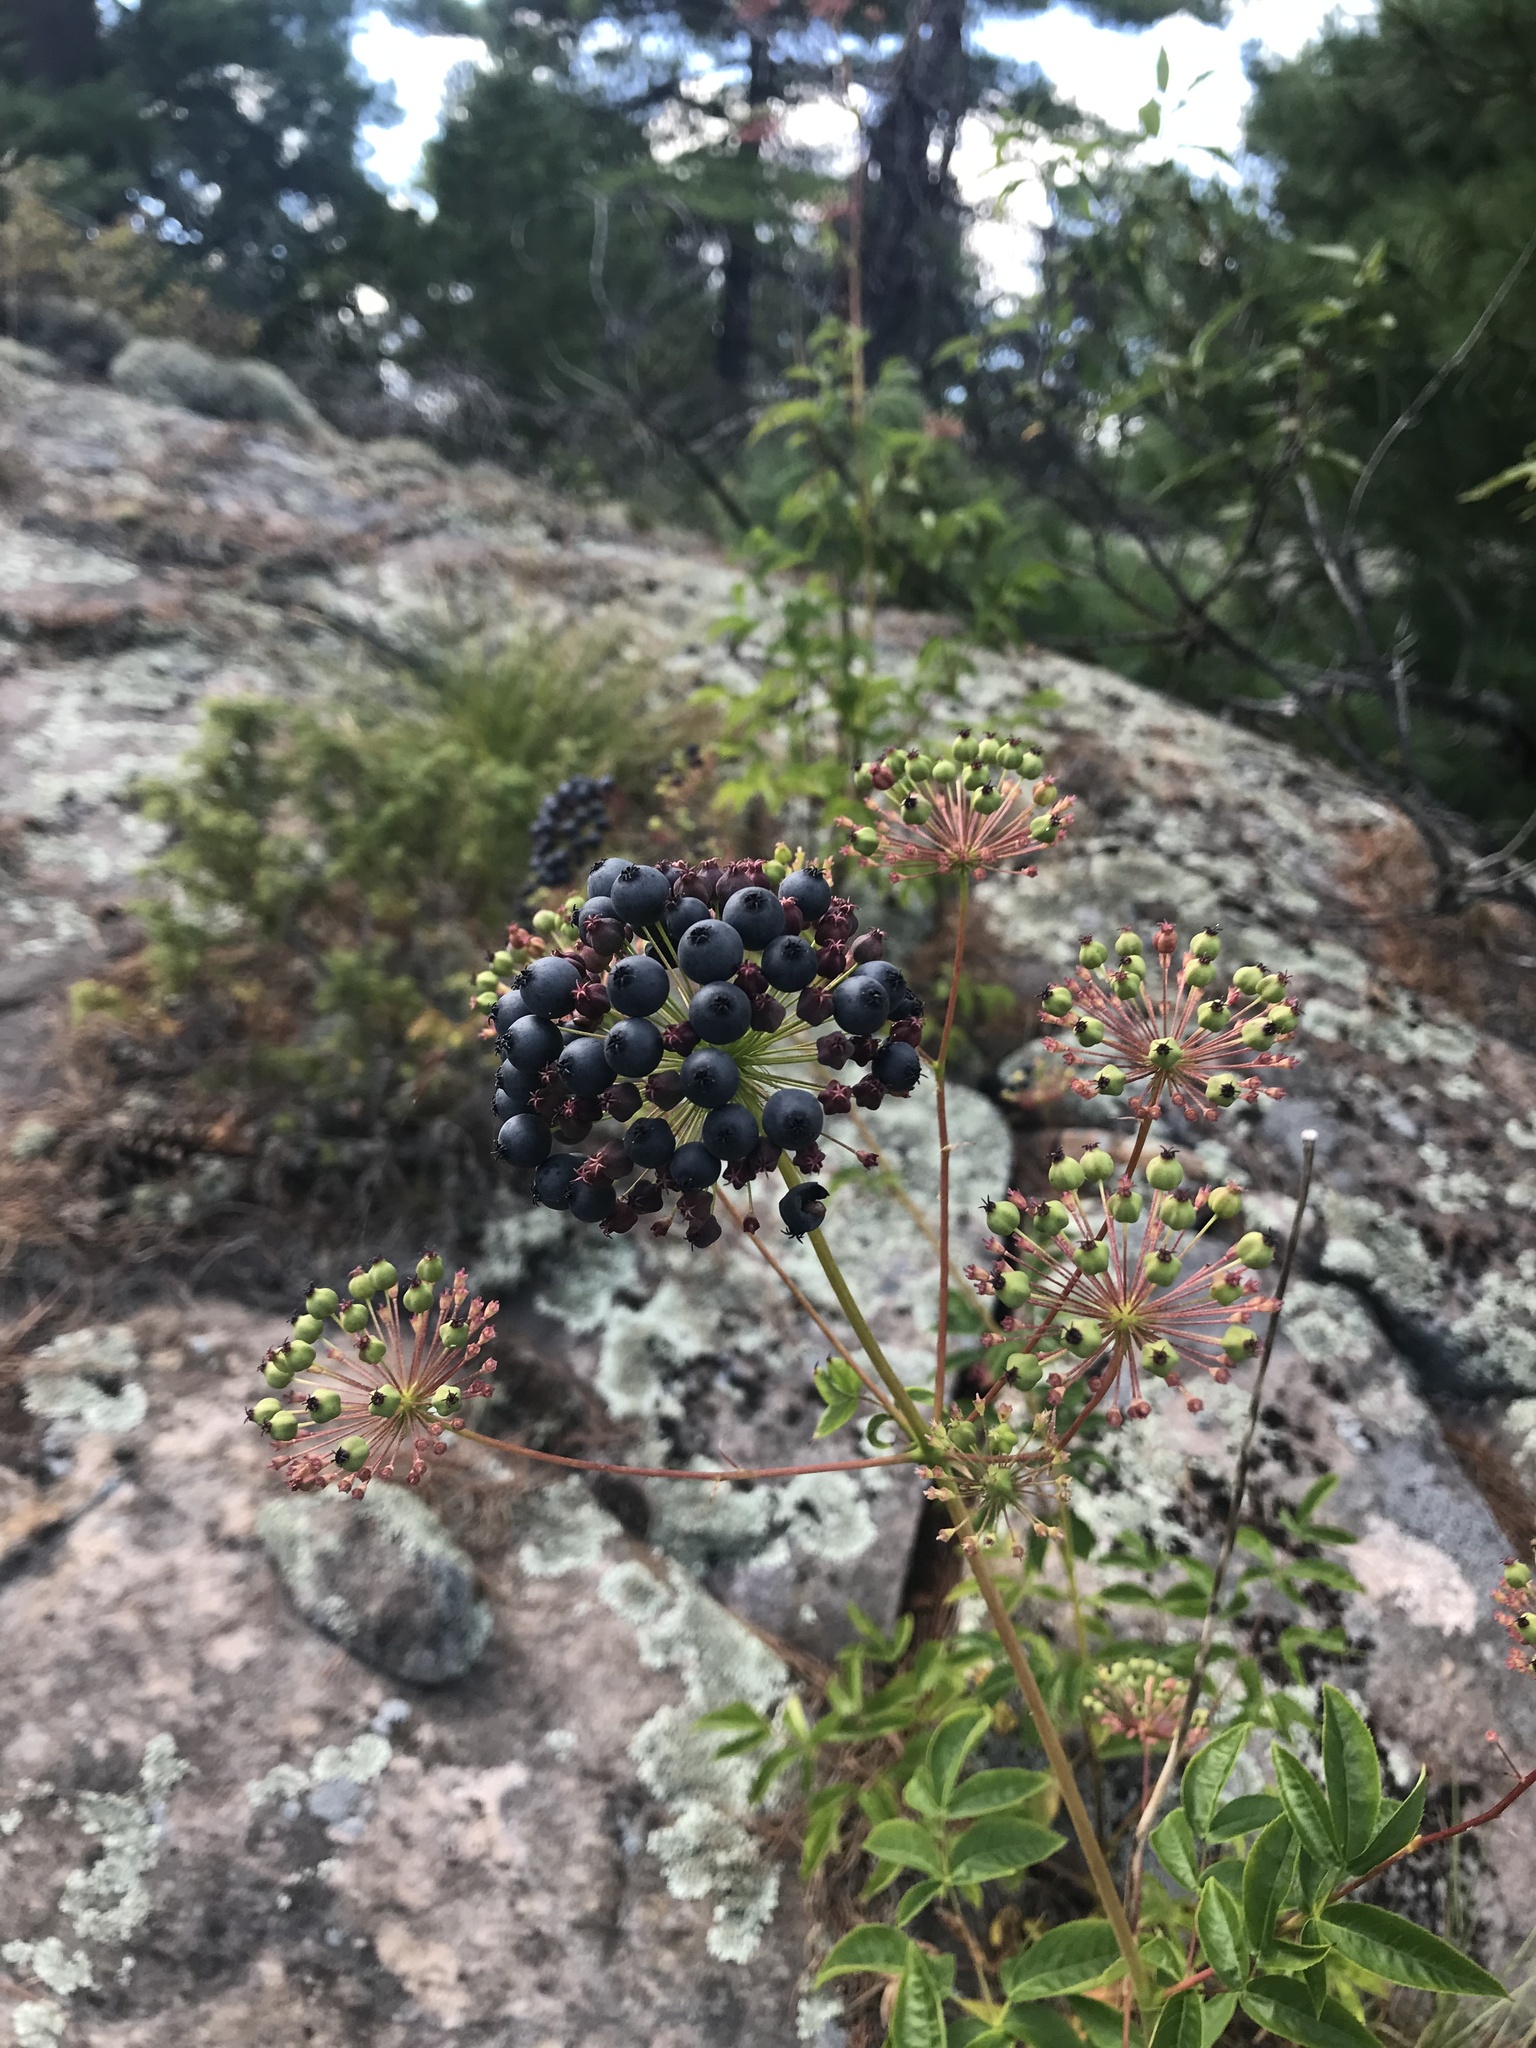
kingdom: Plantae
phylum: Tracheophyta
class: Magnoliopsida
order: Apiales
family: Araliaceae
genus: Aralia
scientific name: Aralia hispida
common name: Bristly sarsaparilla
